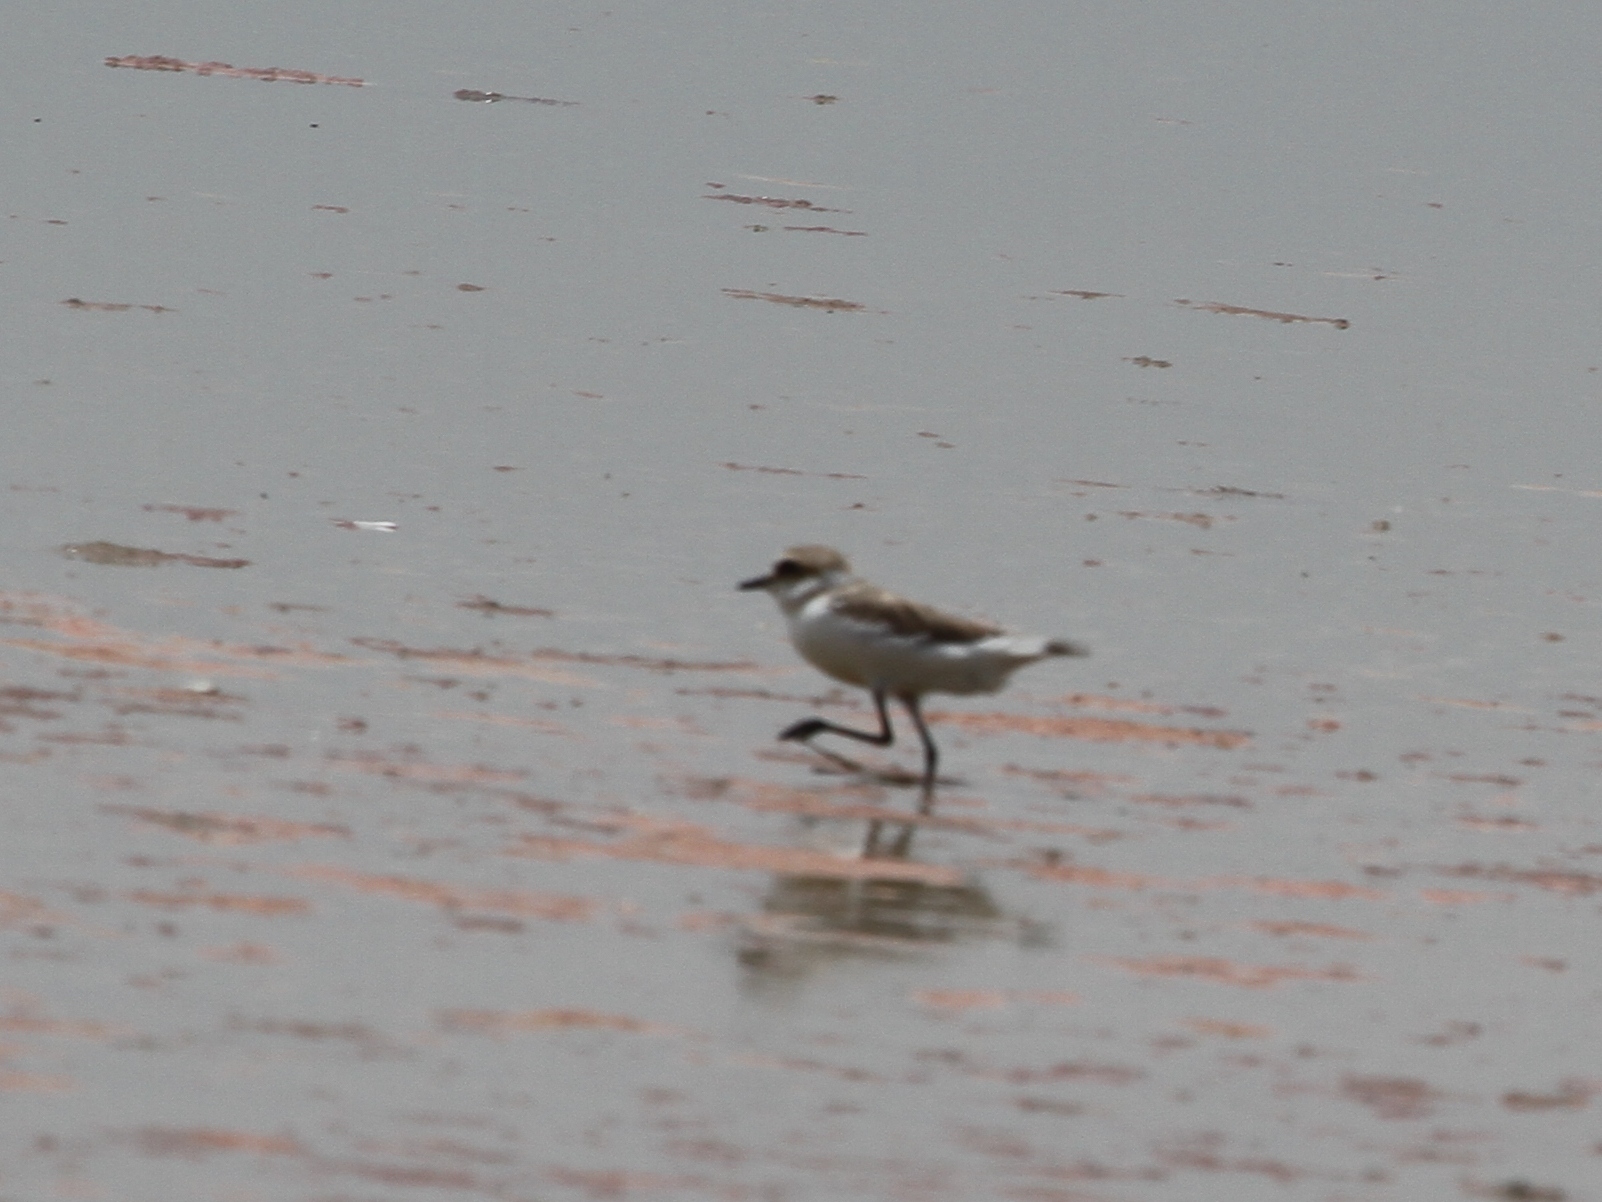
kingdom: Animalia
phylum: Chordata
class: Aves
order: Charadriiformes
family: Charadriidae
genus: Charadrius
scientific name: Charadrius alexandrinus
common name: Kentish plover
